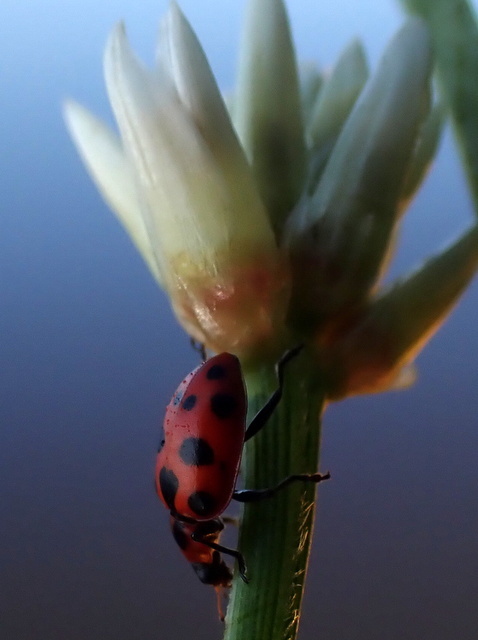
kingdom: Animalia
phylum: Arthropoda
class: Insecta
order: Coleoptera
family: Coccinellidae
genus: Coleomegilla
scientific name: Coleomegilla maculata
